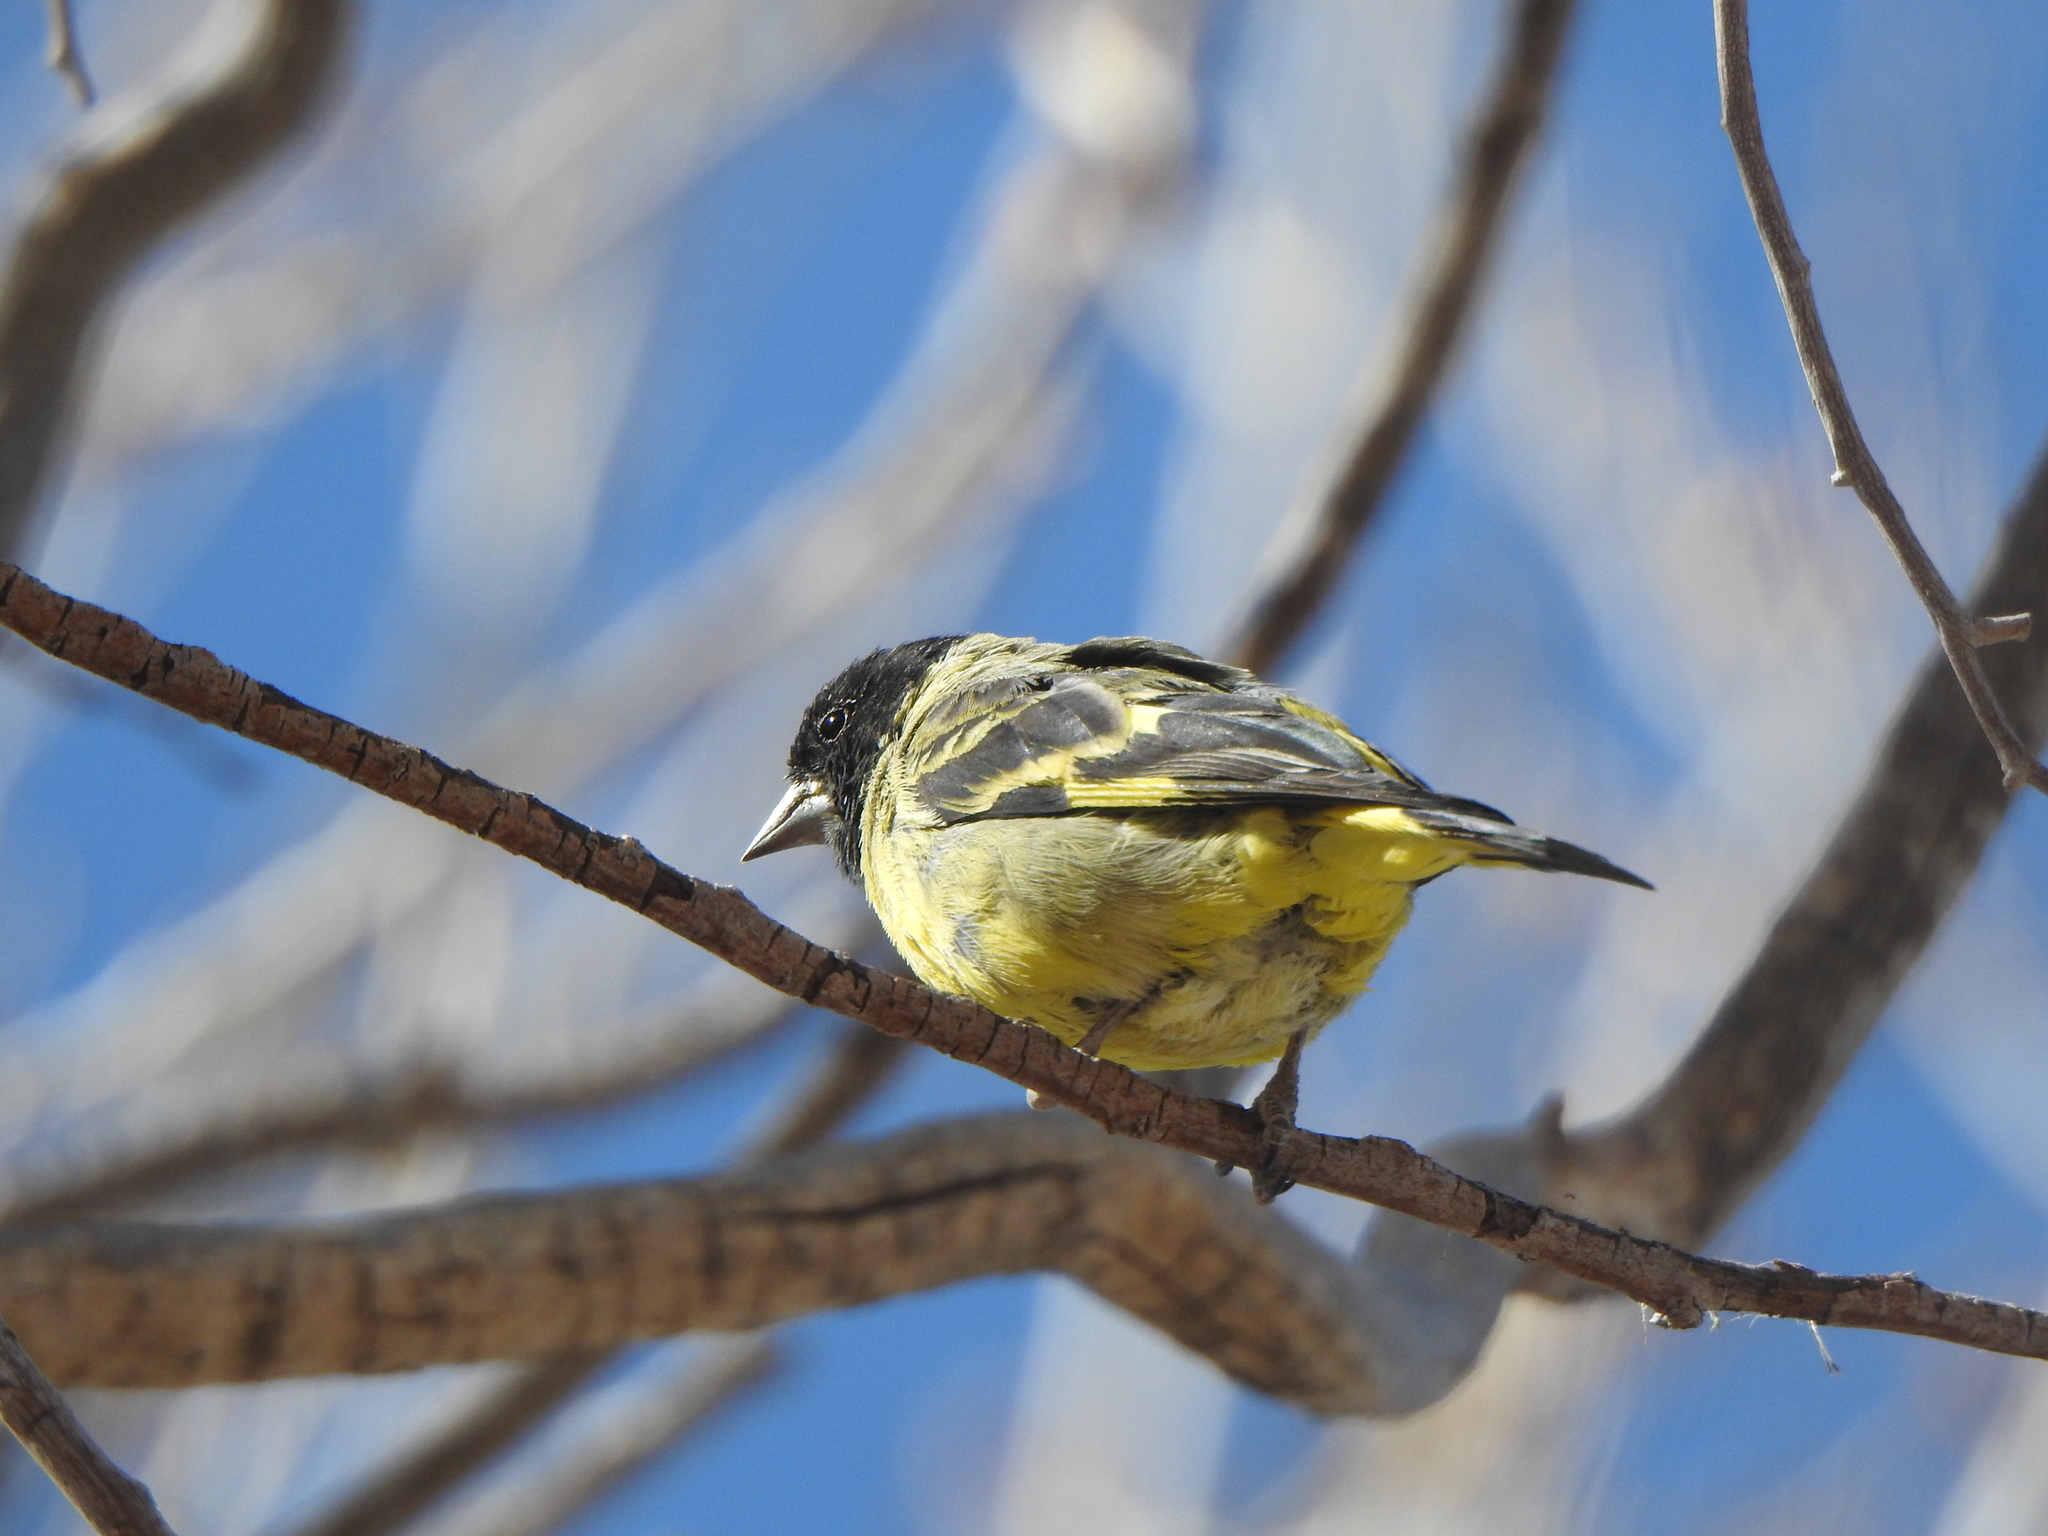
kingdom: Animalia
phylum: Chordata
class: Aves
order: Passeriformes
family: Fringillidae
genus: Spinus
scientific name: Spinus magellanicus
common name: Hooded siskin
